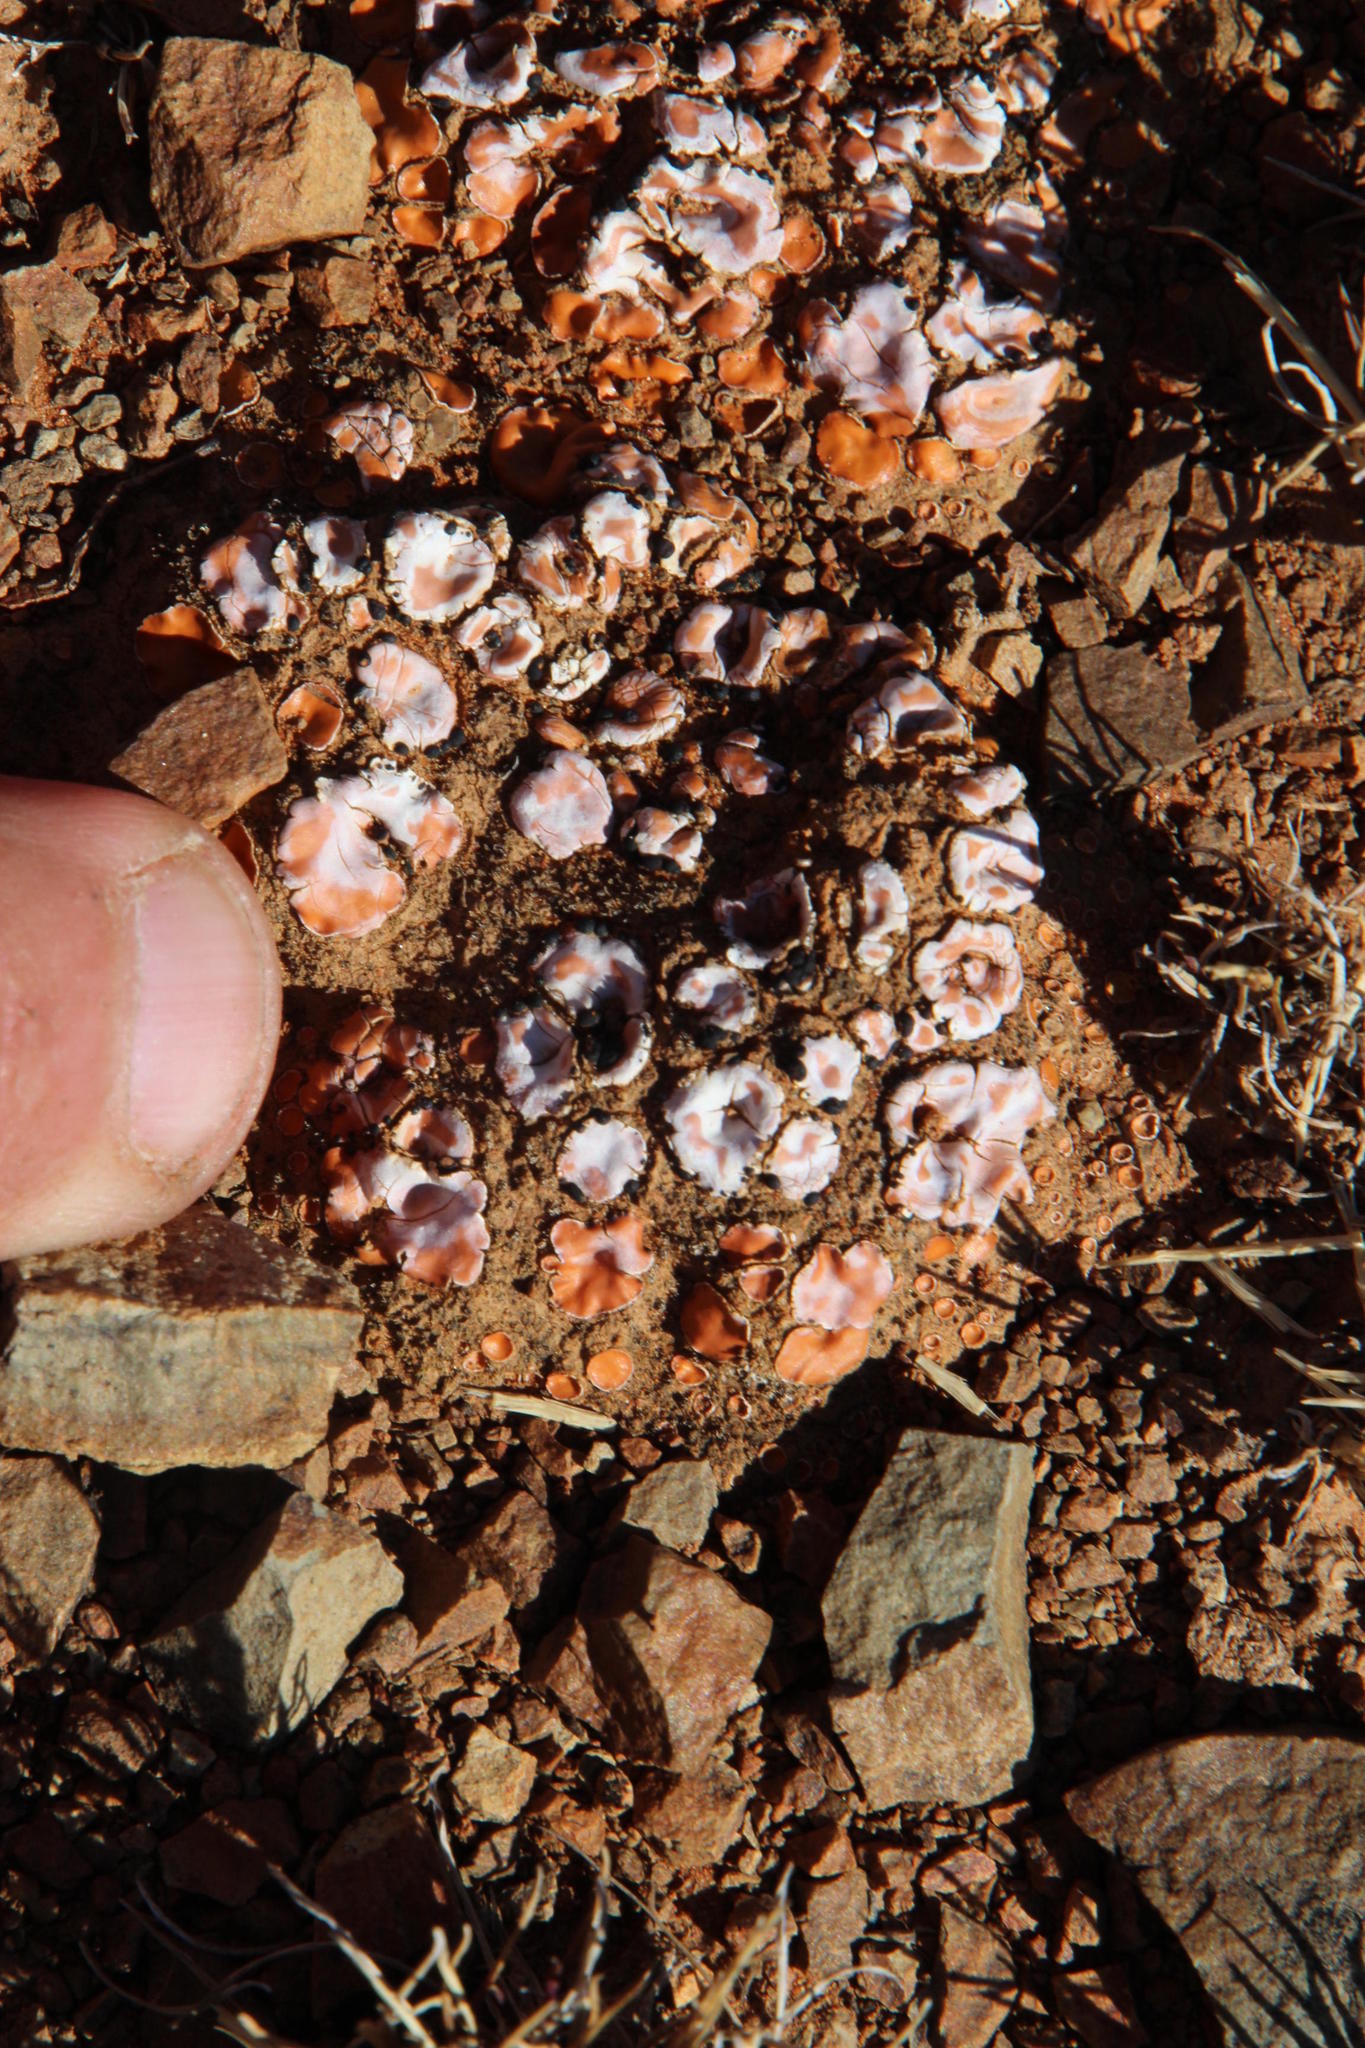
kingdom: Fungi
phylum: Ascomycota
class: Lecanoromycetes
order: Lecanorales
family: Psoraceae
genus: Psora
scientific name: Psora crenata
